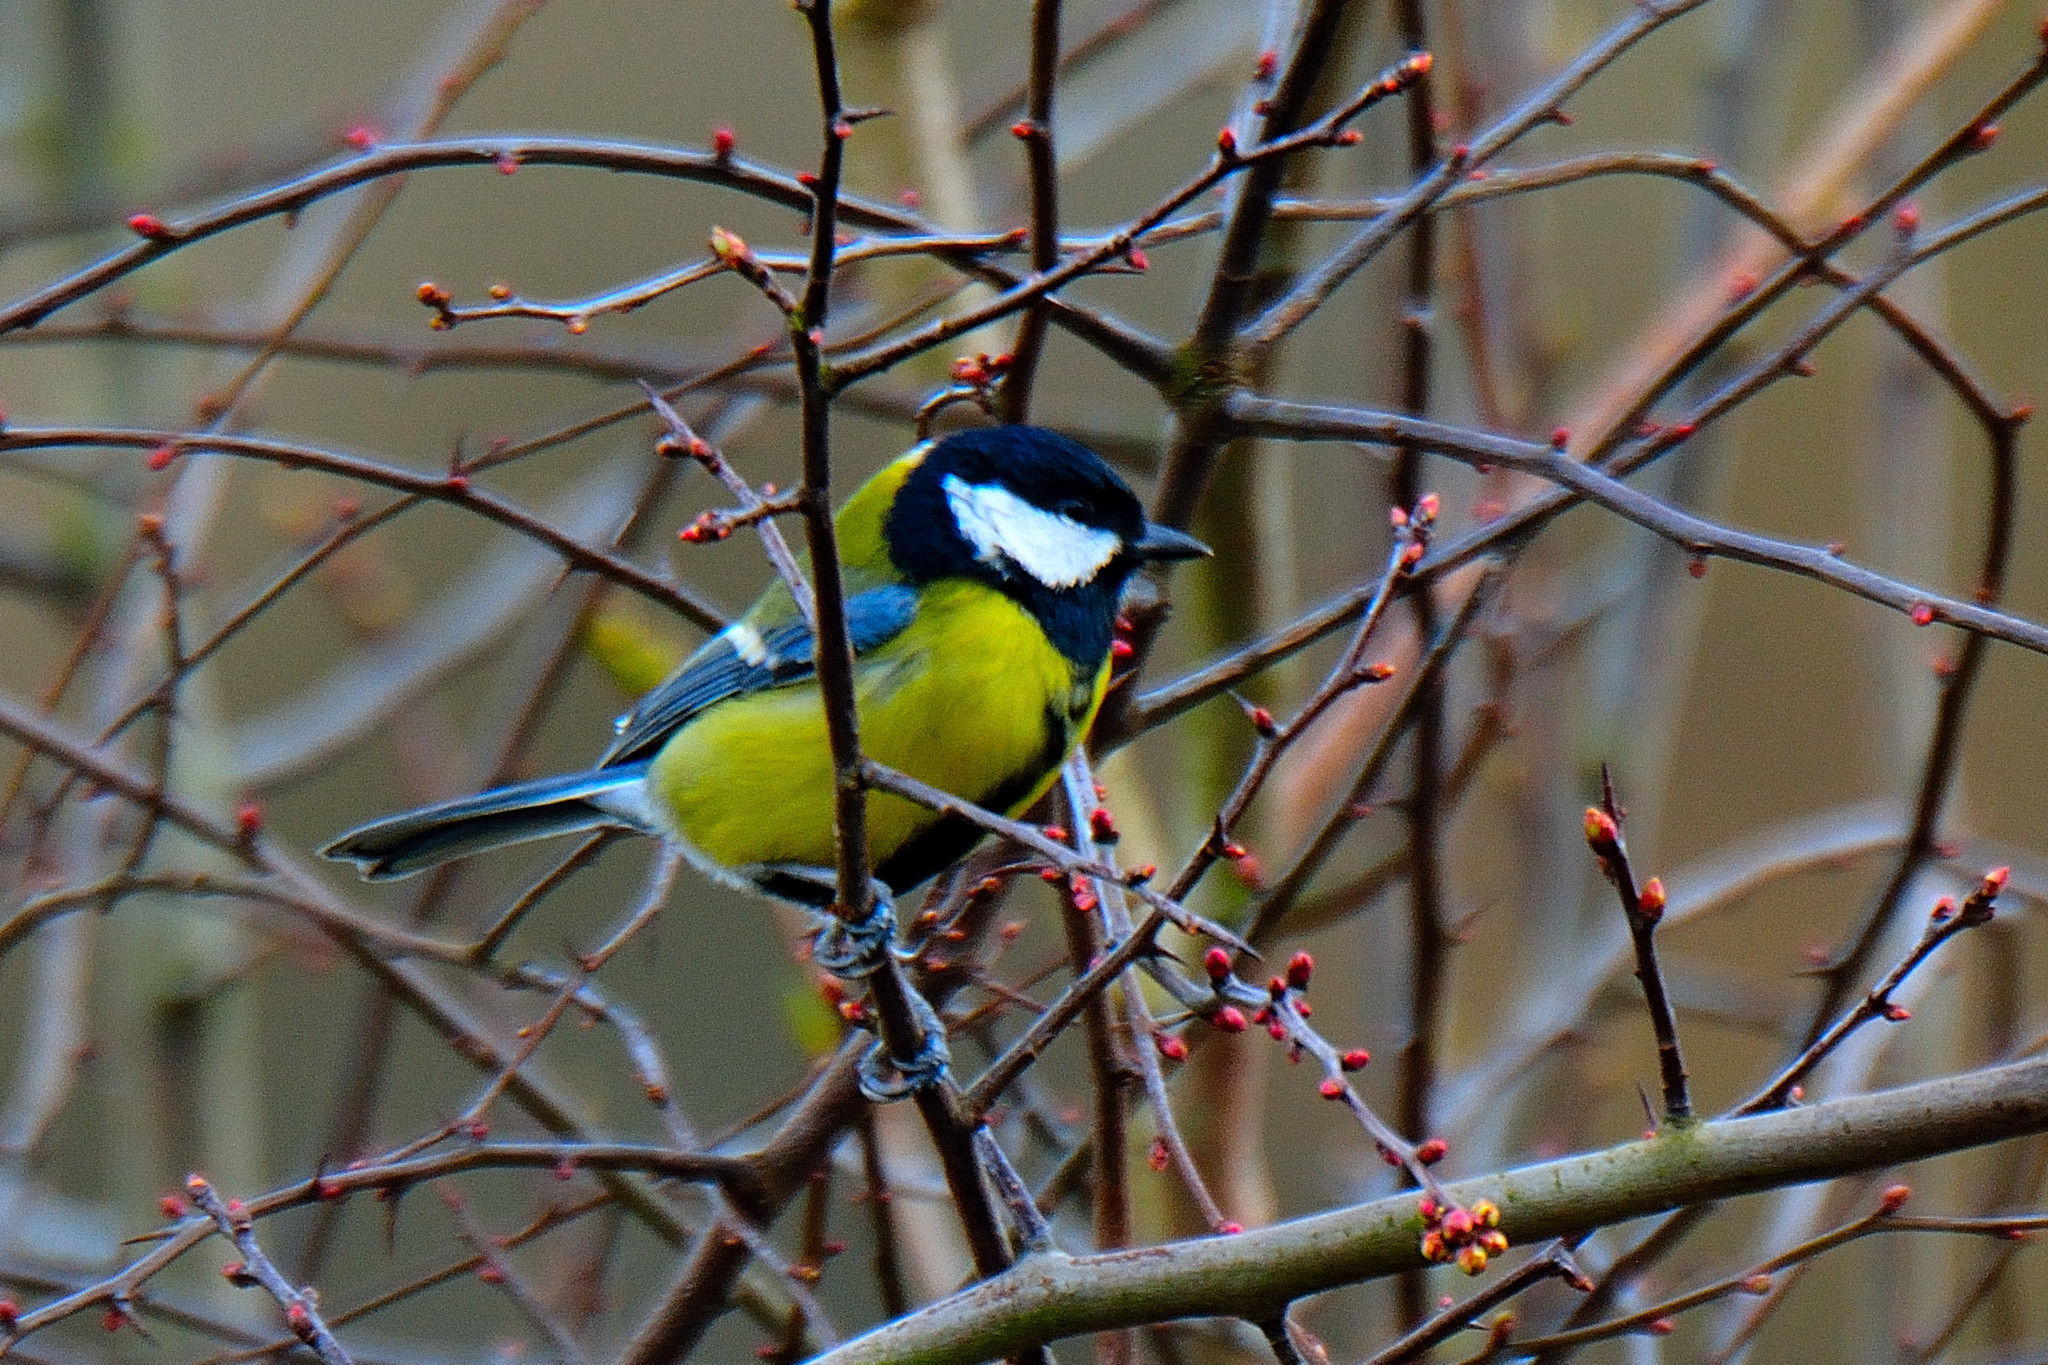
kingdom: Animalia
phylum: Chordata
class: Aves
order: Passeriformes
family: Paridae
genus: Parus
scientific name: Parus major
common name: Great tit
